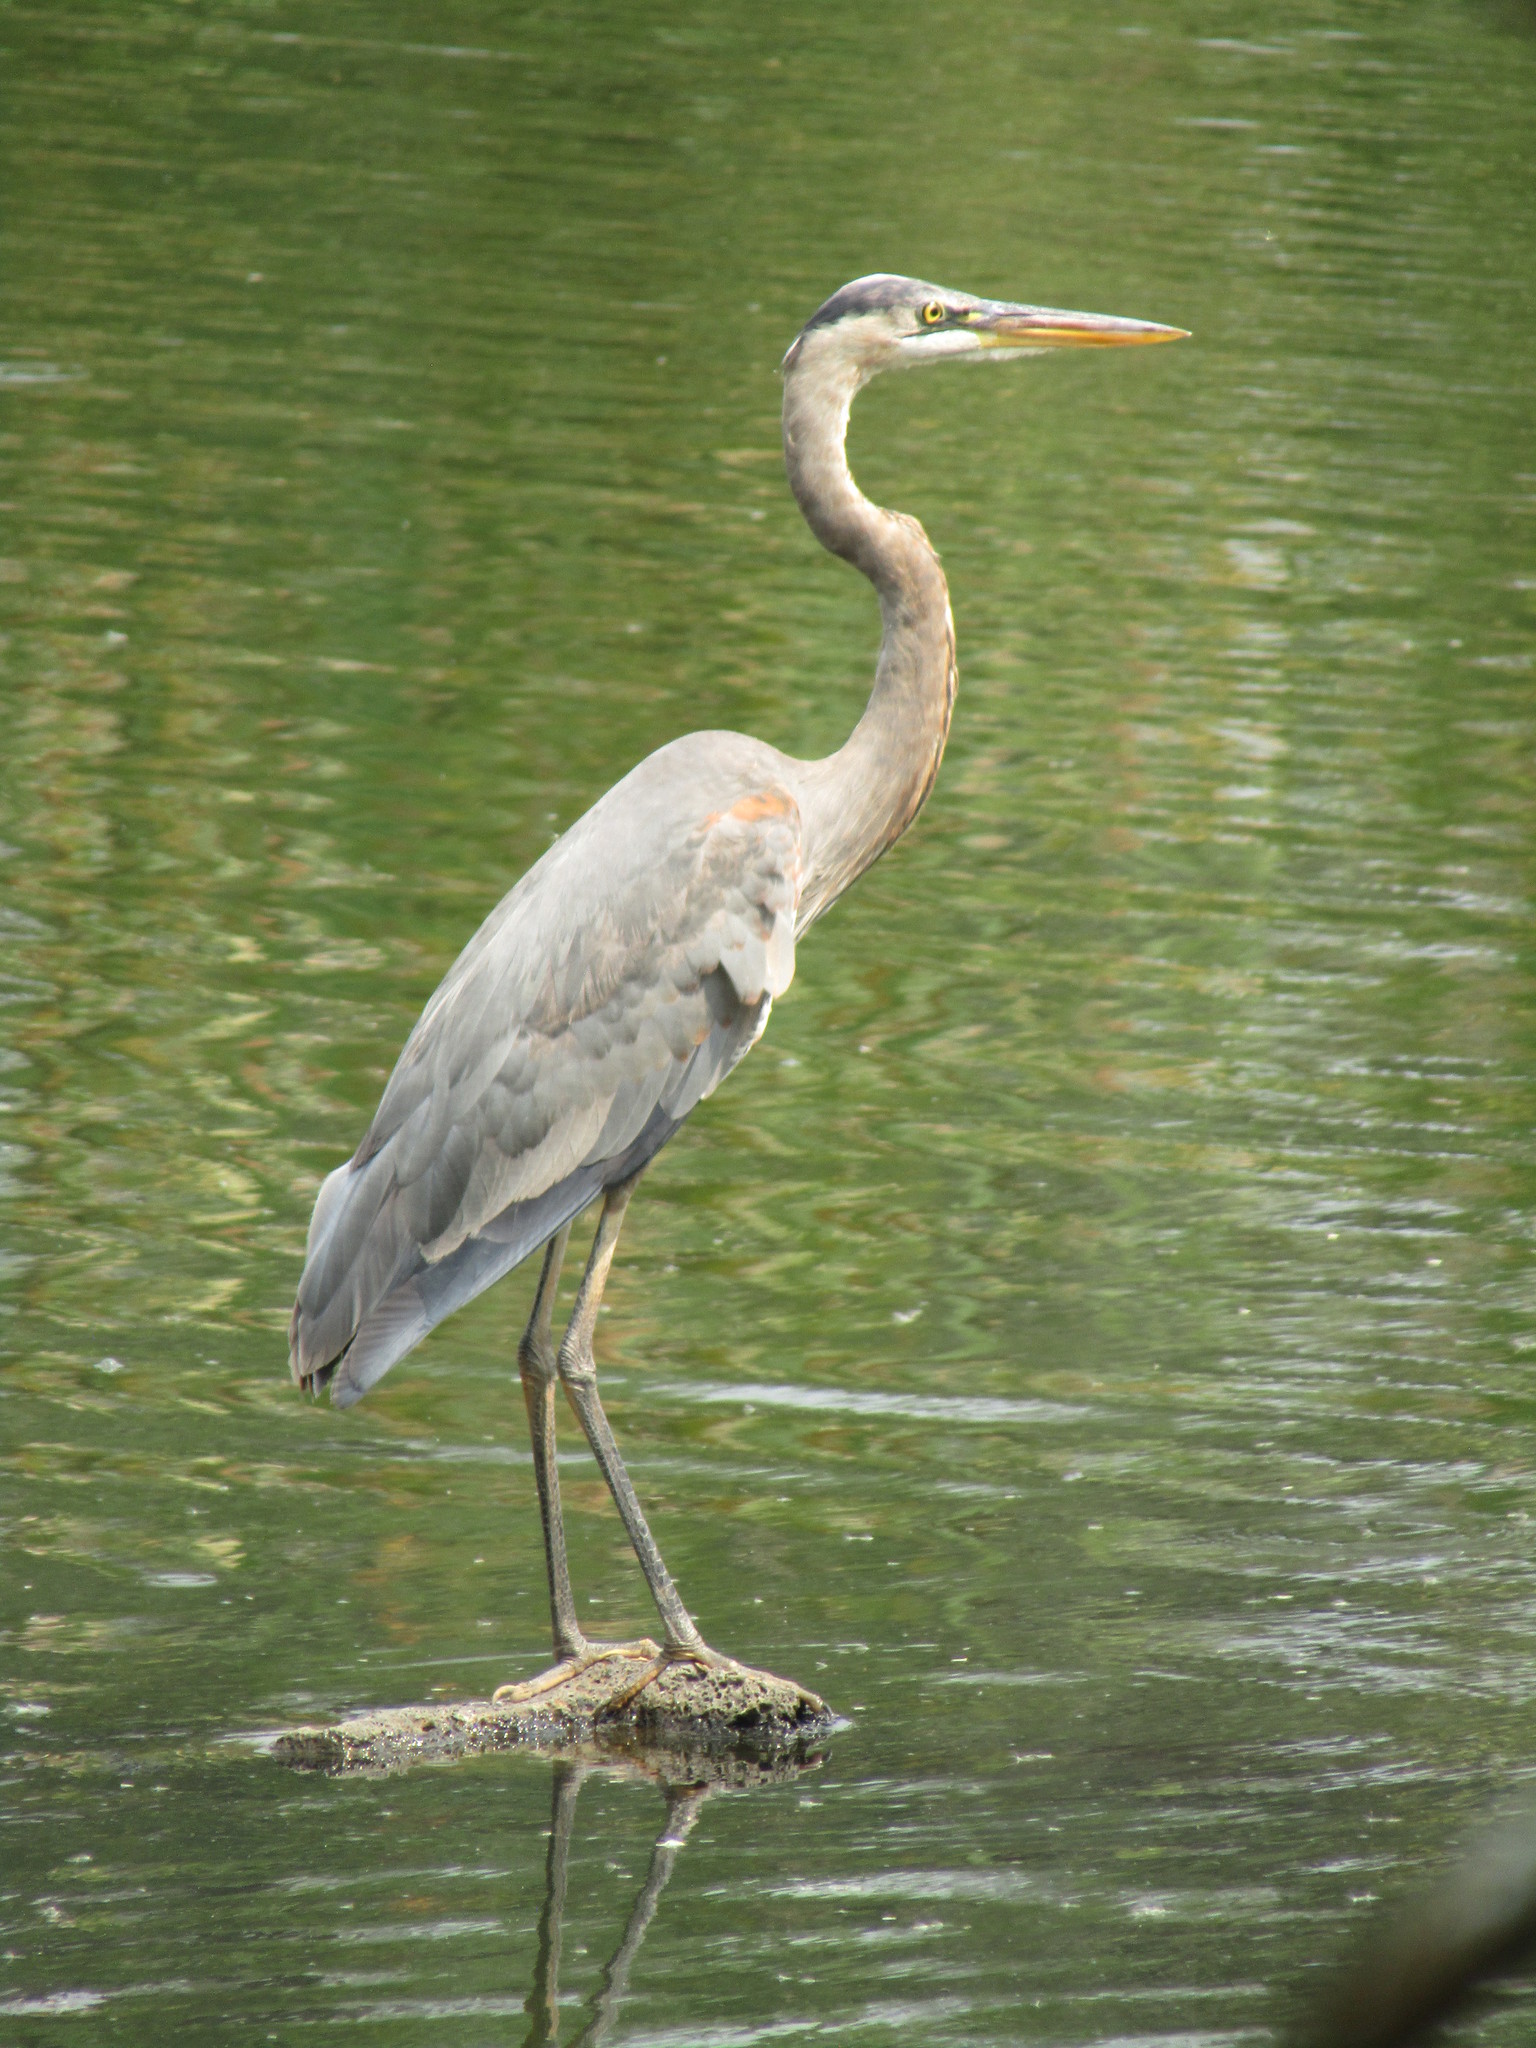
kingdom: Animalia
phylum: Chordata
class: Aves
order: Pelecaniformes
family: Ardeidae
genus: Ardea
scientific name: Ardea herodias
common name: Great blue heron
